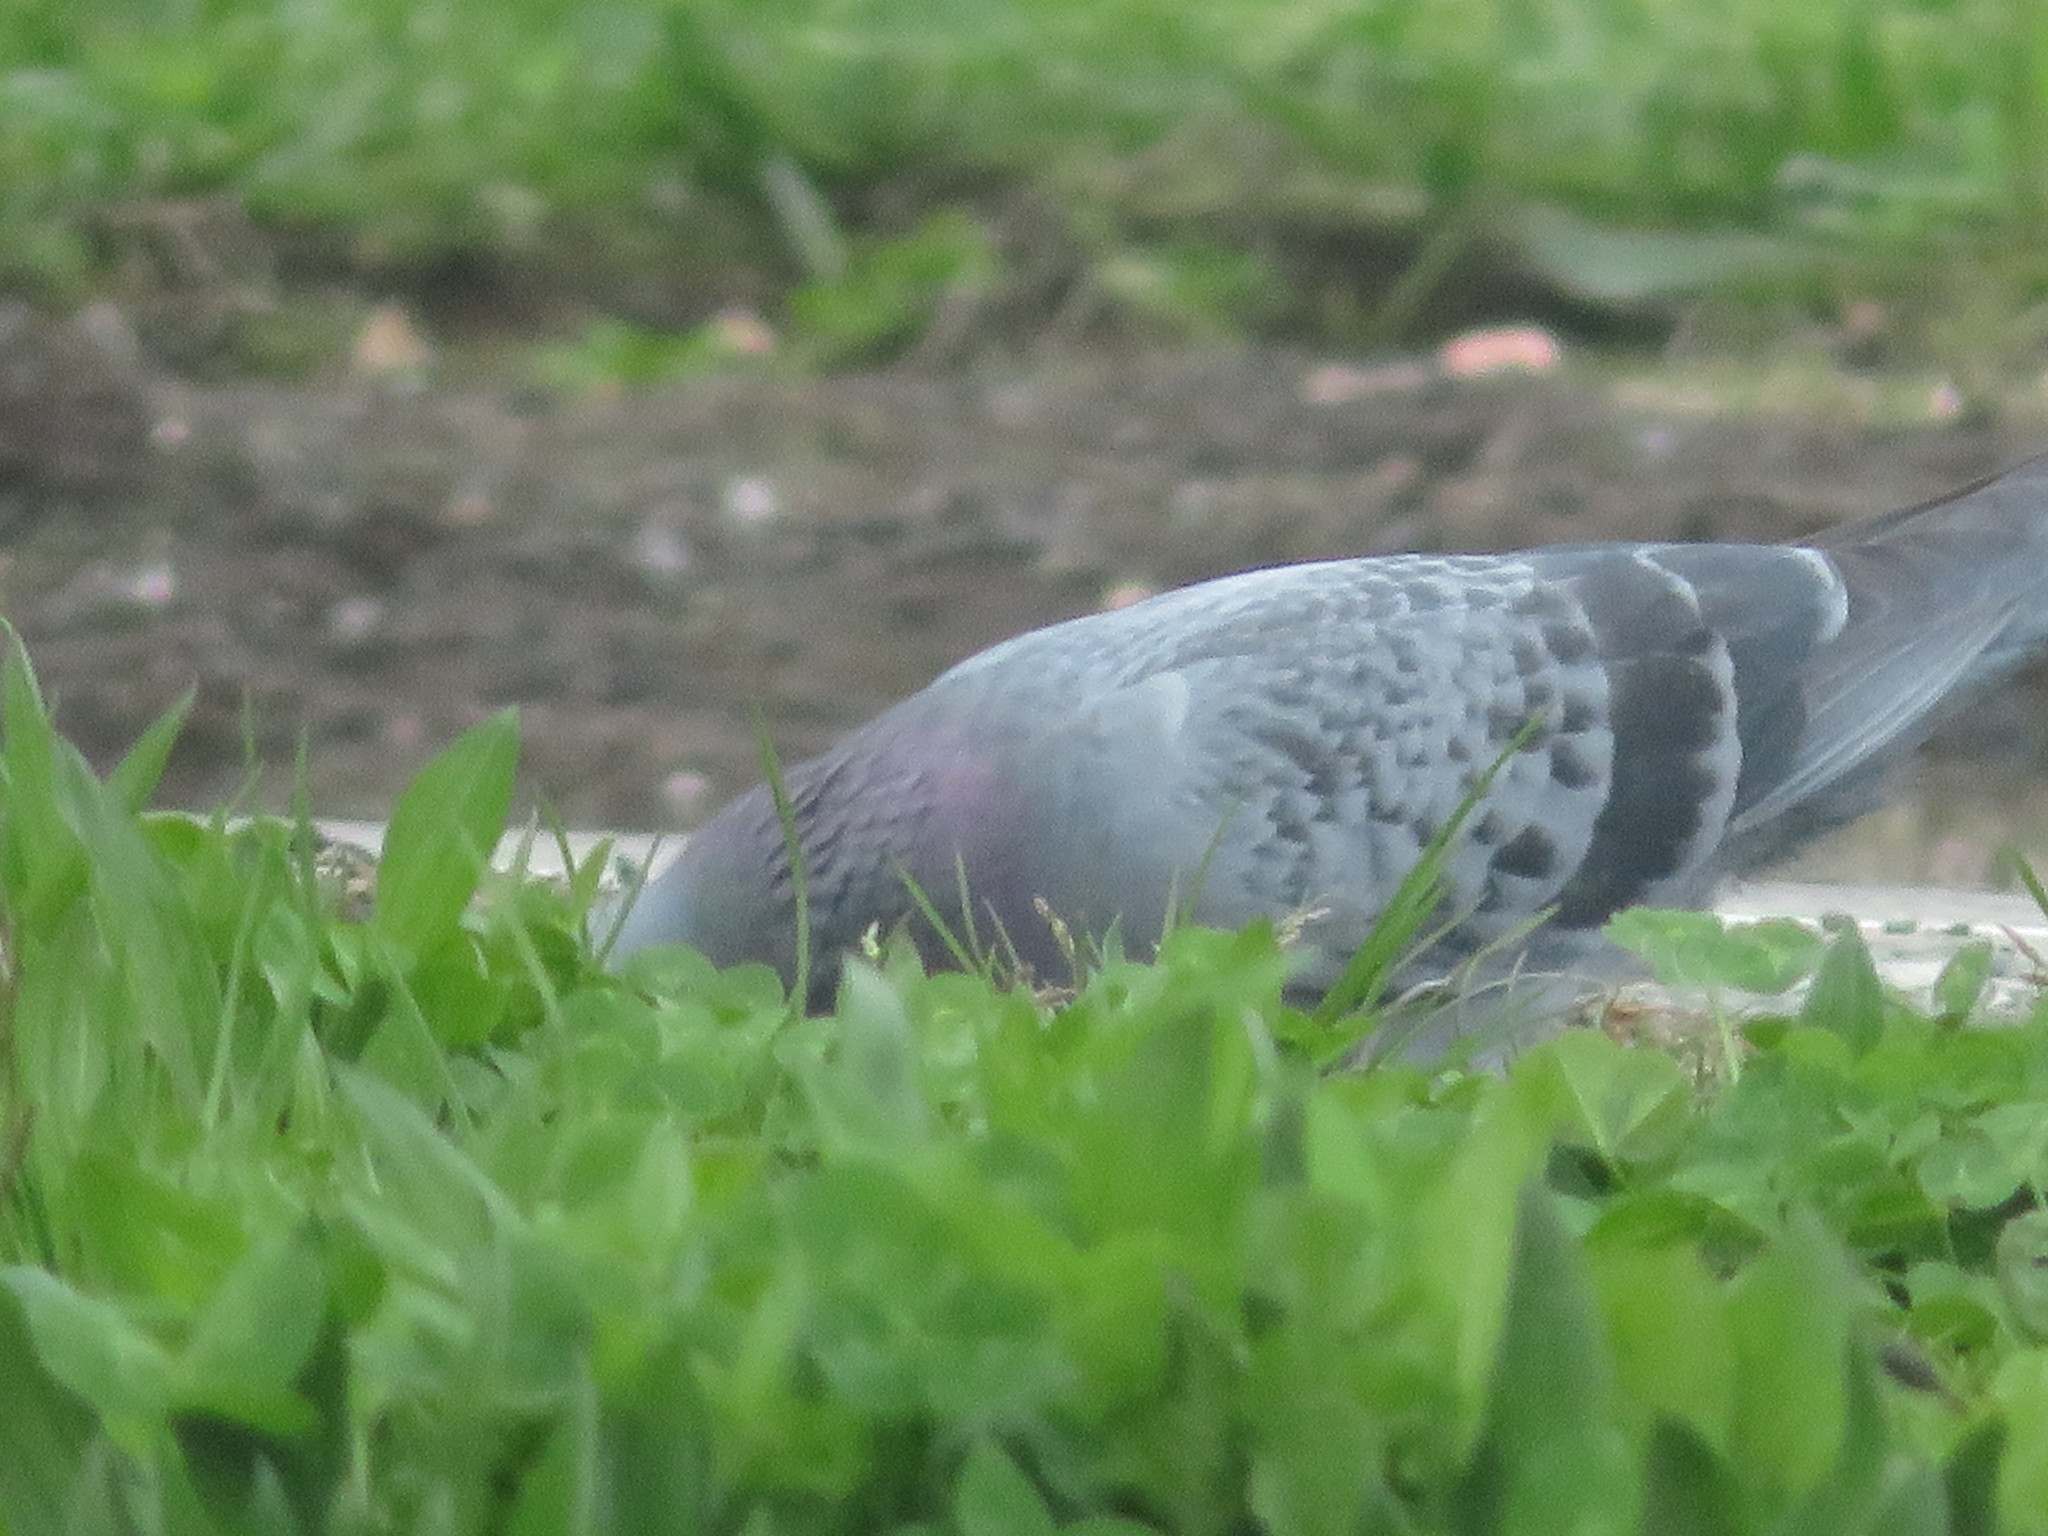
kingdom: Animalia
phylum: Chordata
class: Aves
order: Columbiformes
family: Columbidae
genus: Columba
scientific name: Columba livia
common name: Rock pigeon
